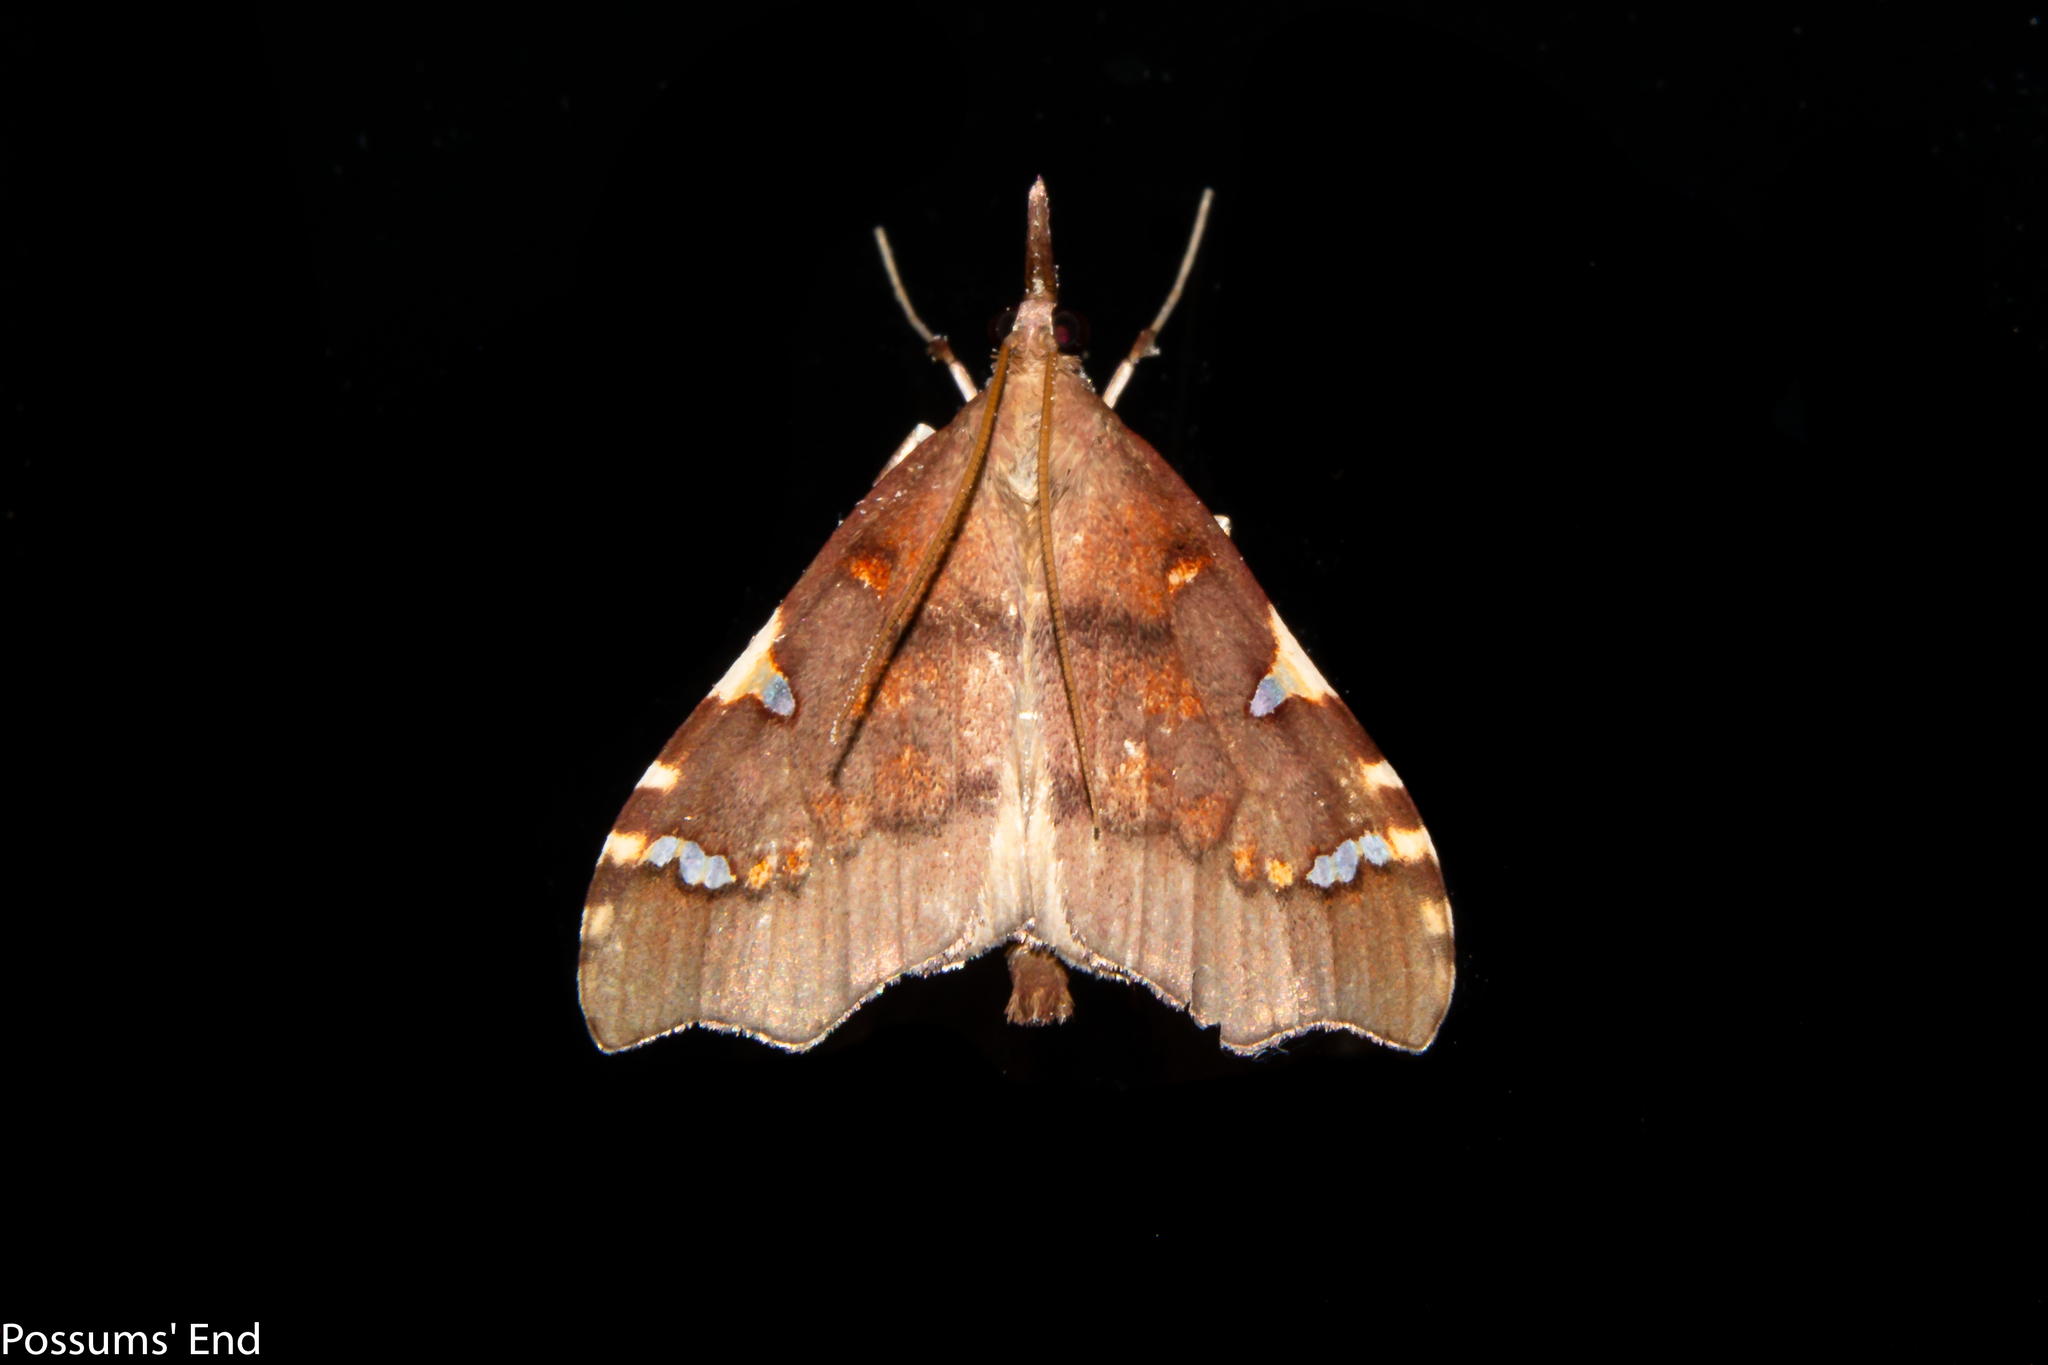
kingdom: Animalia
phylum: Arthropoda
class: Insecta
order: Lepidoptera
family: Crambidae
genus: Deana
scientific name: Deana hybreasalis
